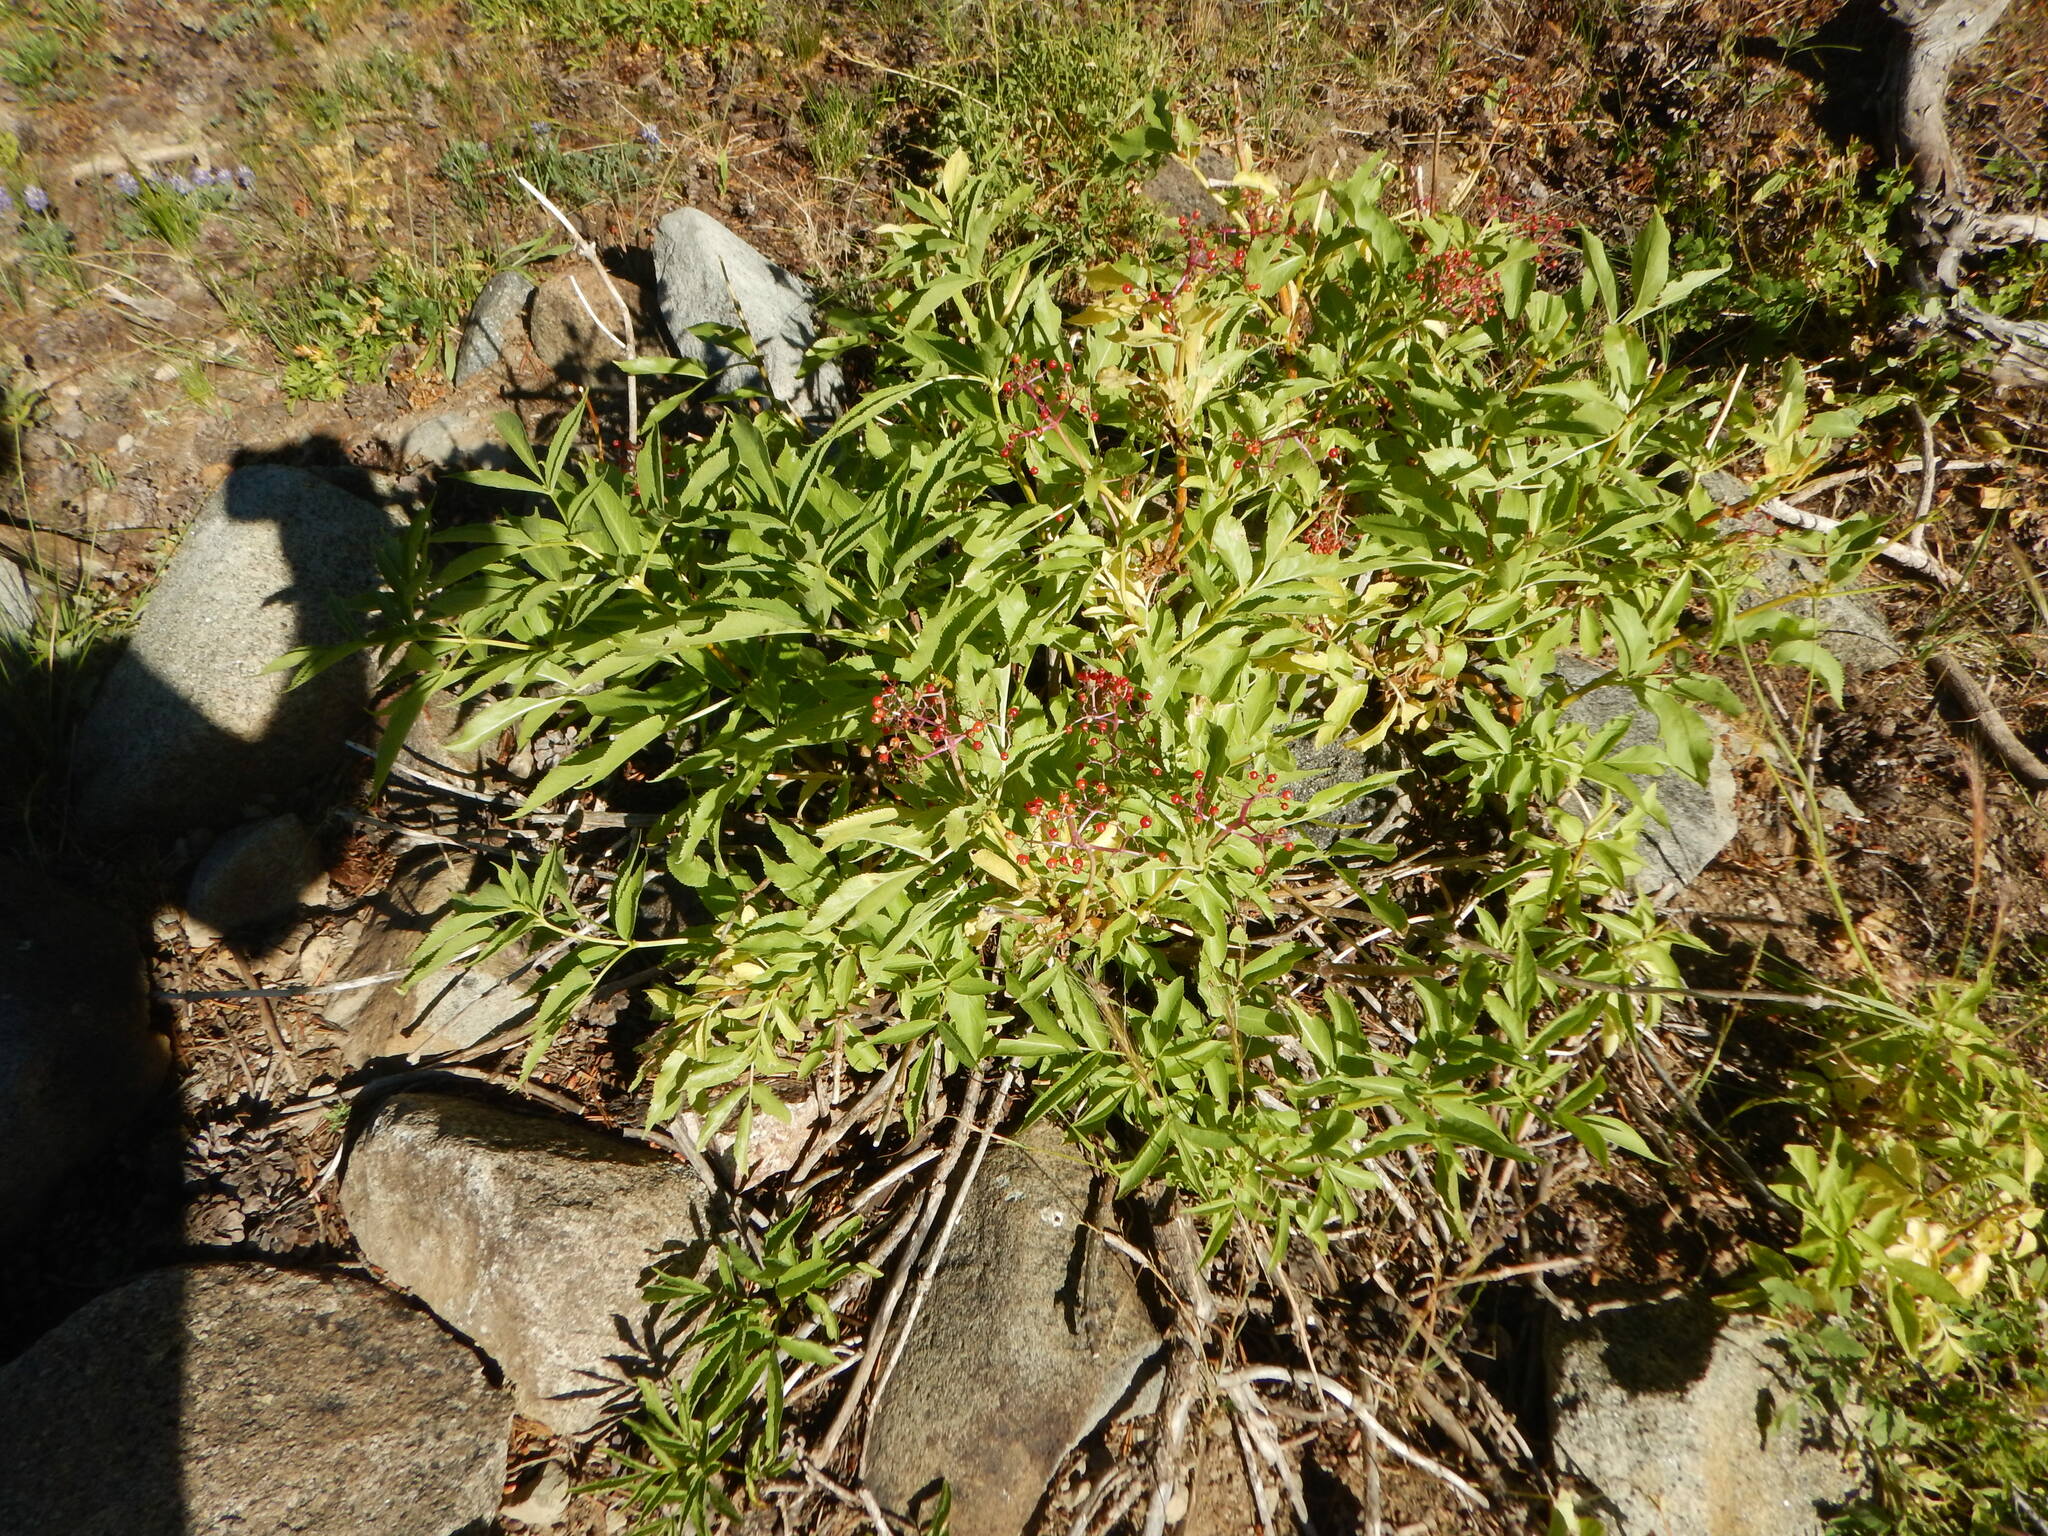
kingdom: Plantae
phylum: Tracheophyta
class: Magnoliopsida
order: Dipsacales
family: Viburnaceae
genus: Sambucus
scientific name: Sambucus racemosa
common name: Red-berried elder
